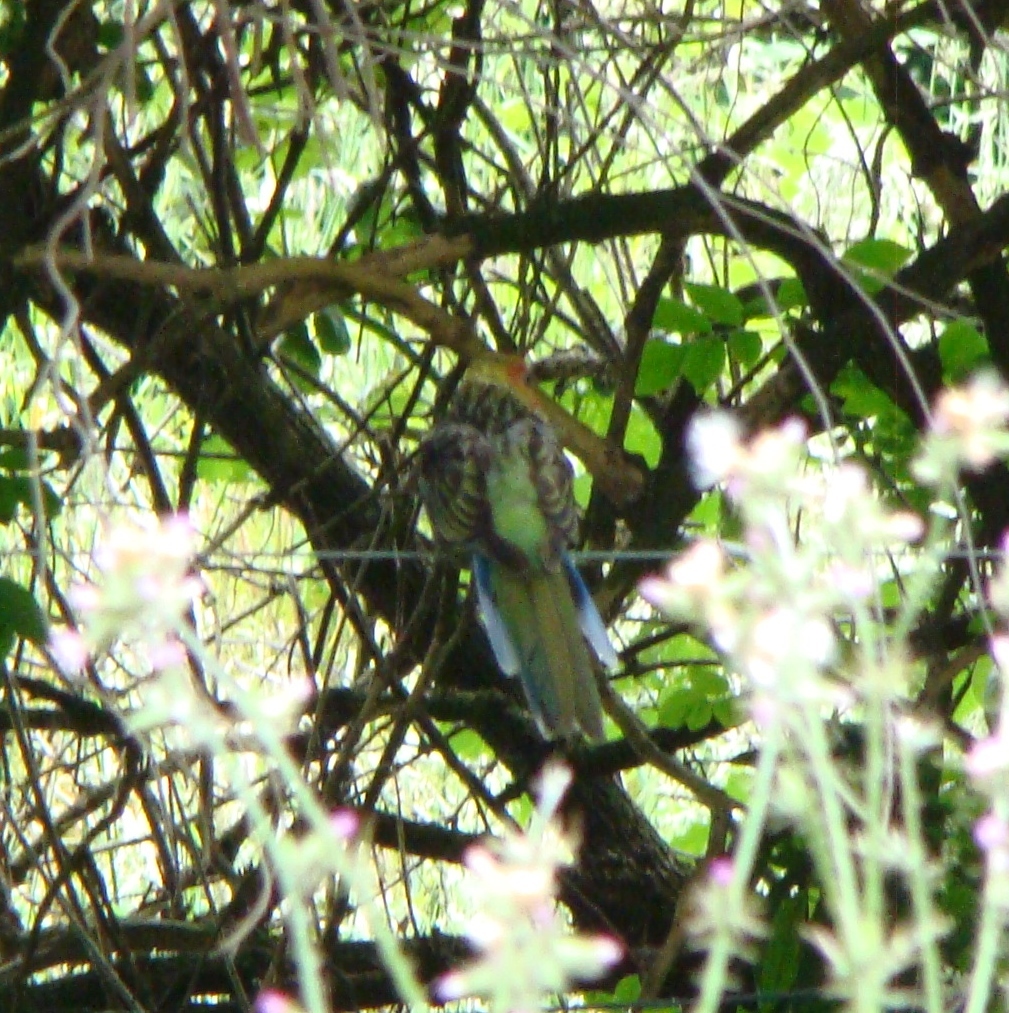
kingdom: Animalia
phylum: Chordata
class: Aves
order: Psittaciformes
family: Psittacidae
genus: Platycercus
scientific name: Platycercus eximius
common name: Eastern rosella
